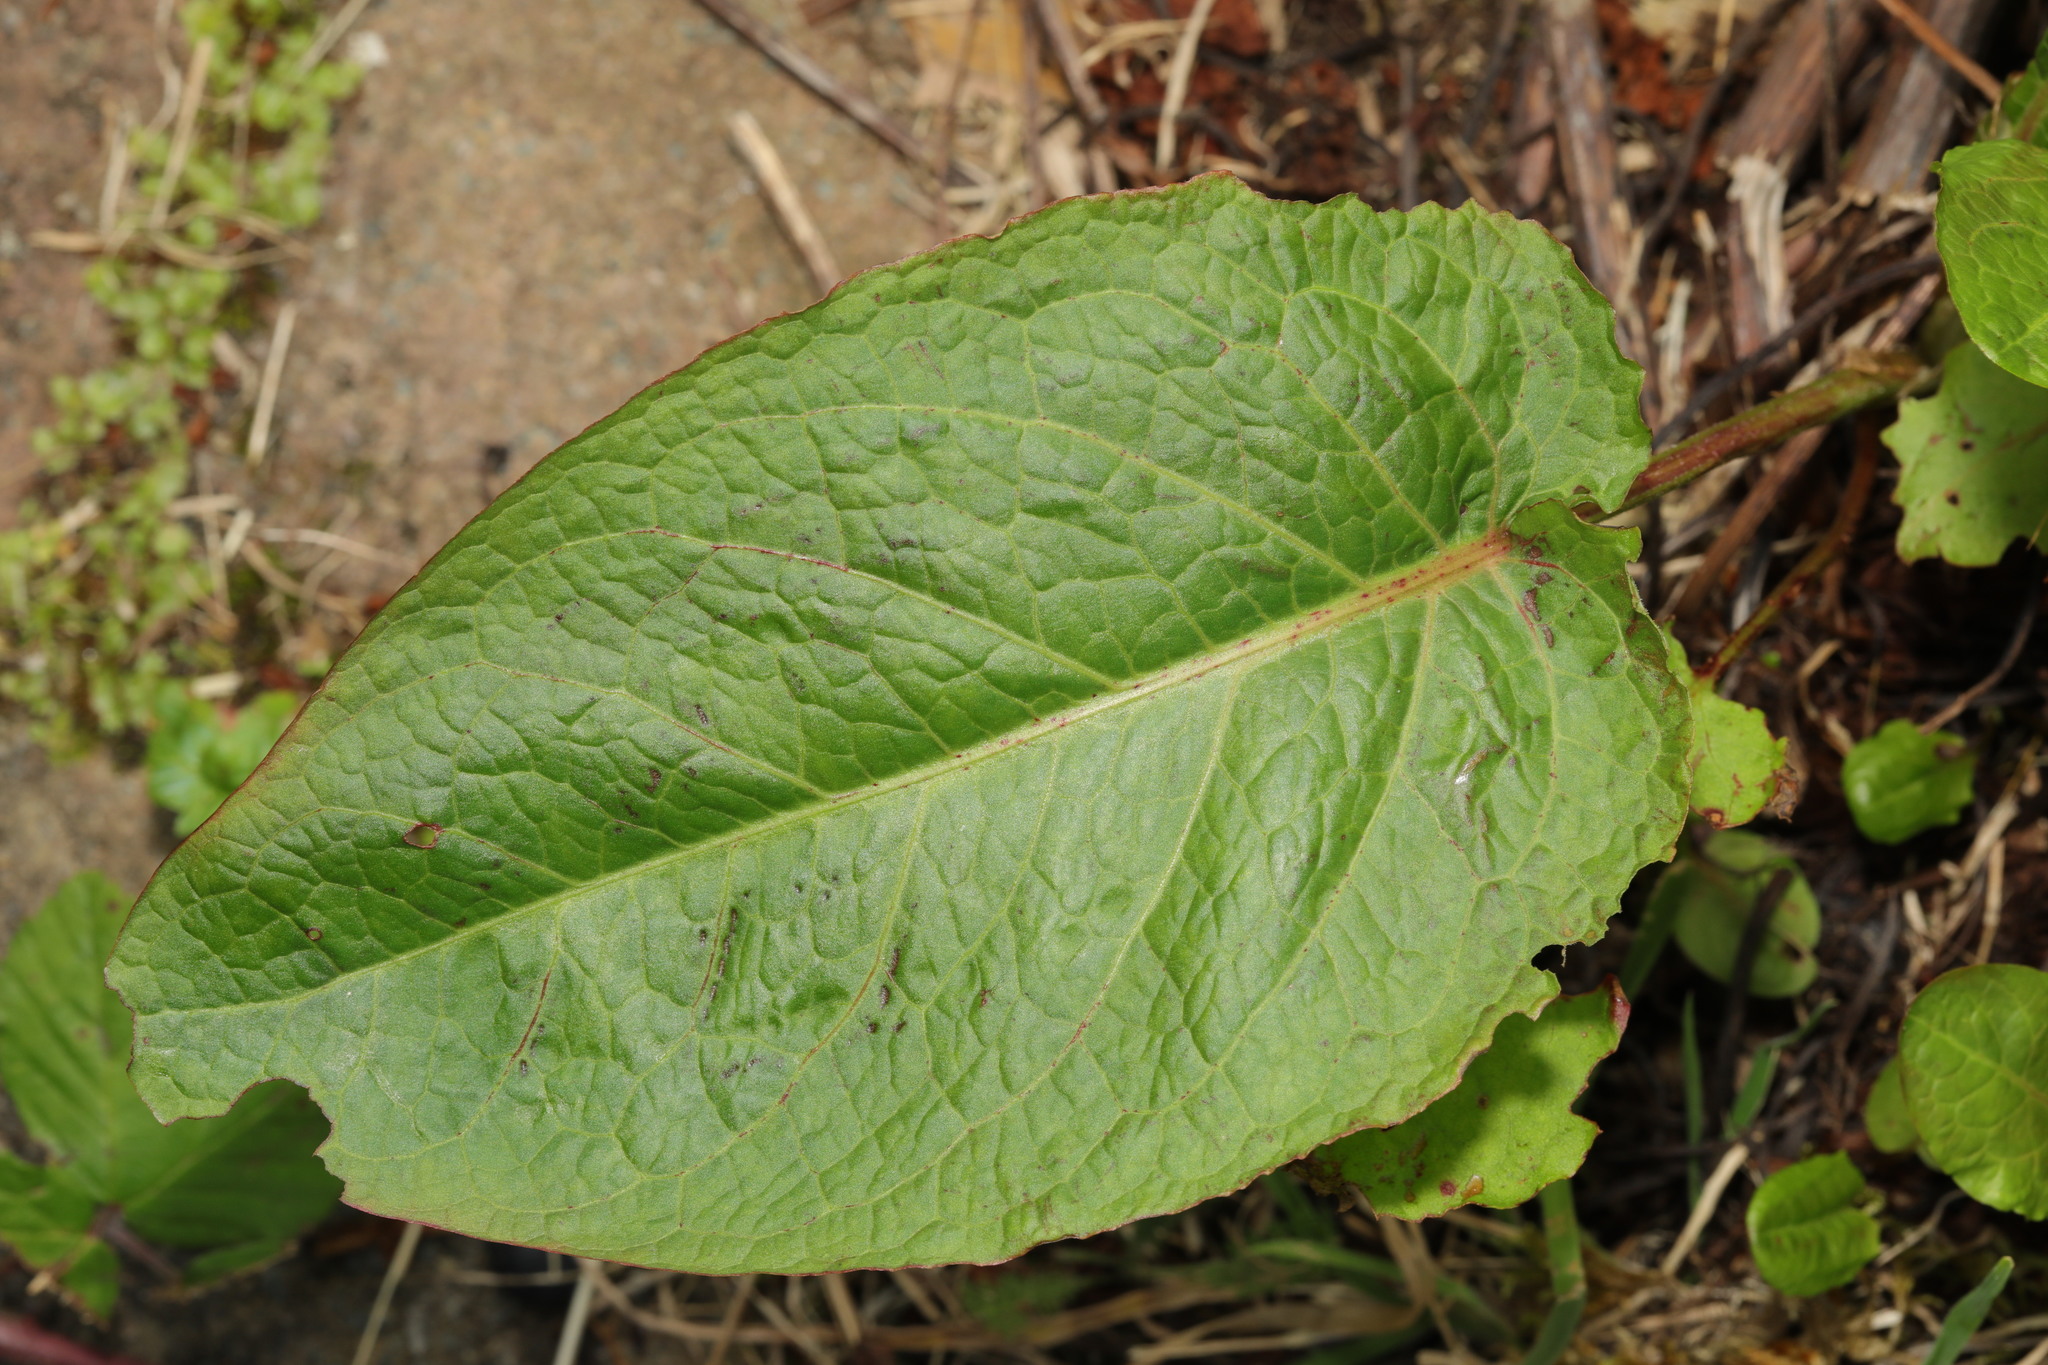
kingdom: Plantae
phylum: Tracheophyta
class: Magnoliopsida
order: Caryophyllales
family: Polygonaceae
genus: Rumex
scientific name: Rumex obtusifolius
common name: Bitter dock
